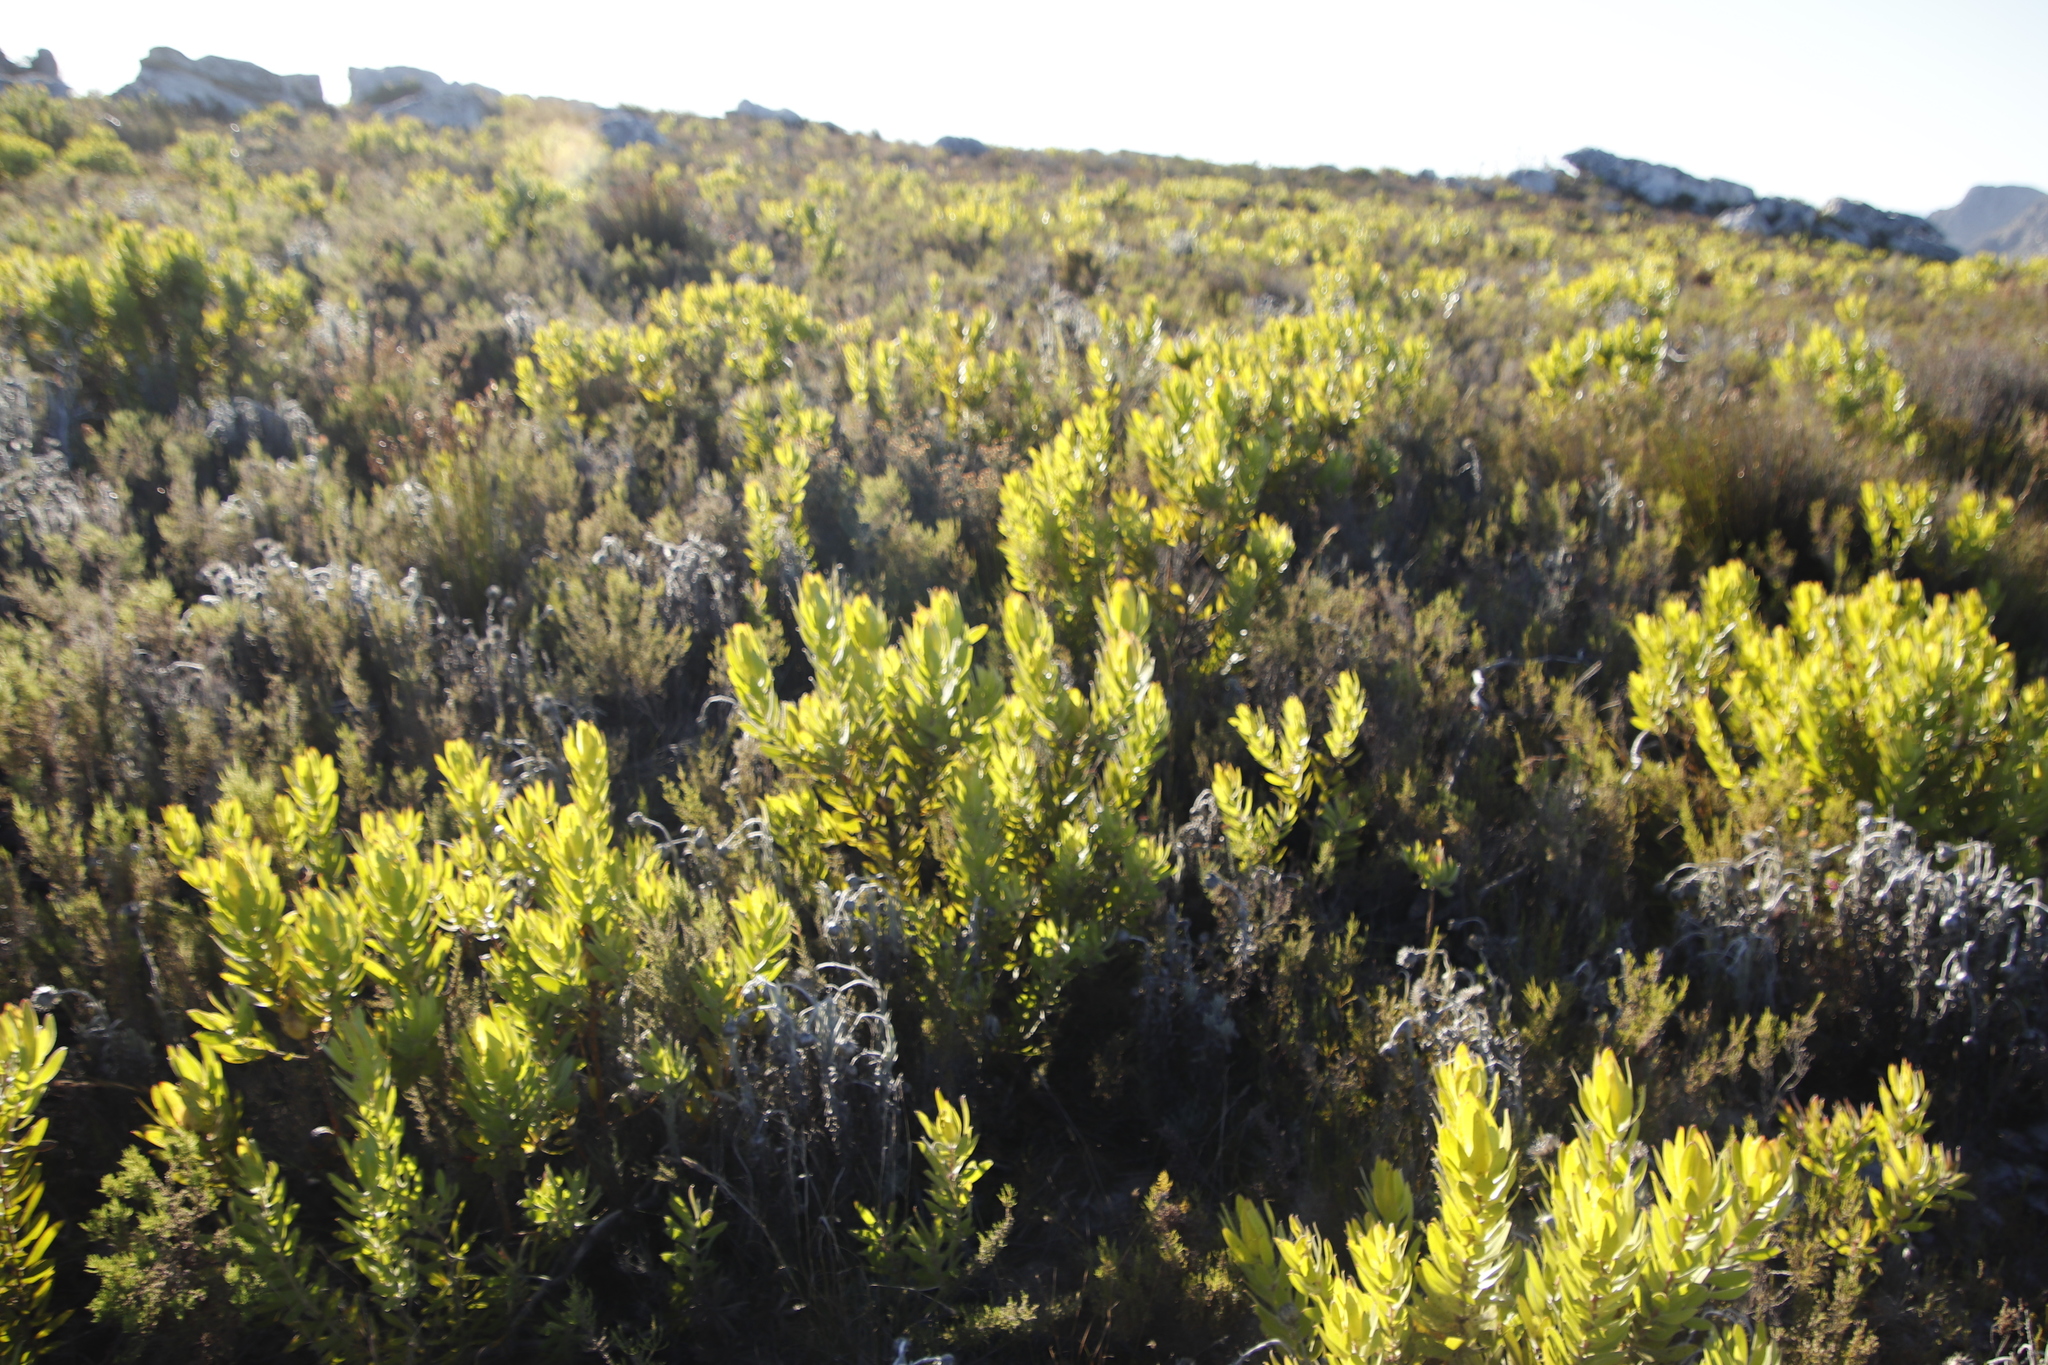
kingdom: Plantae
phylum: Tracheophyta
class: Magnoliopsida
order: Asterales
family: Asteraceae
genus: Syncarpha
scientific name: Syncarpha vestita
